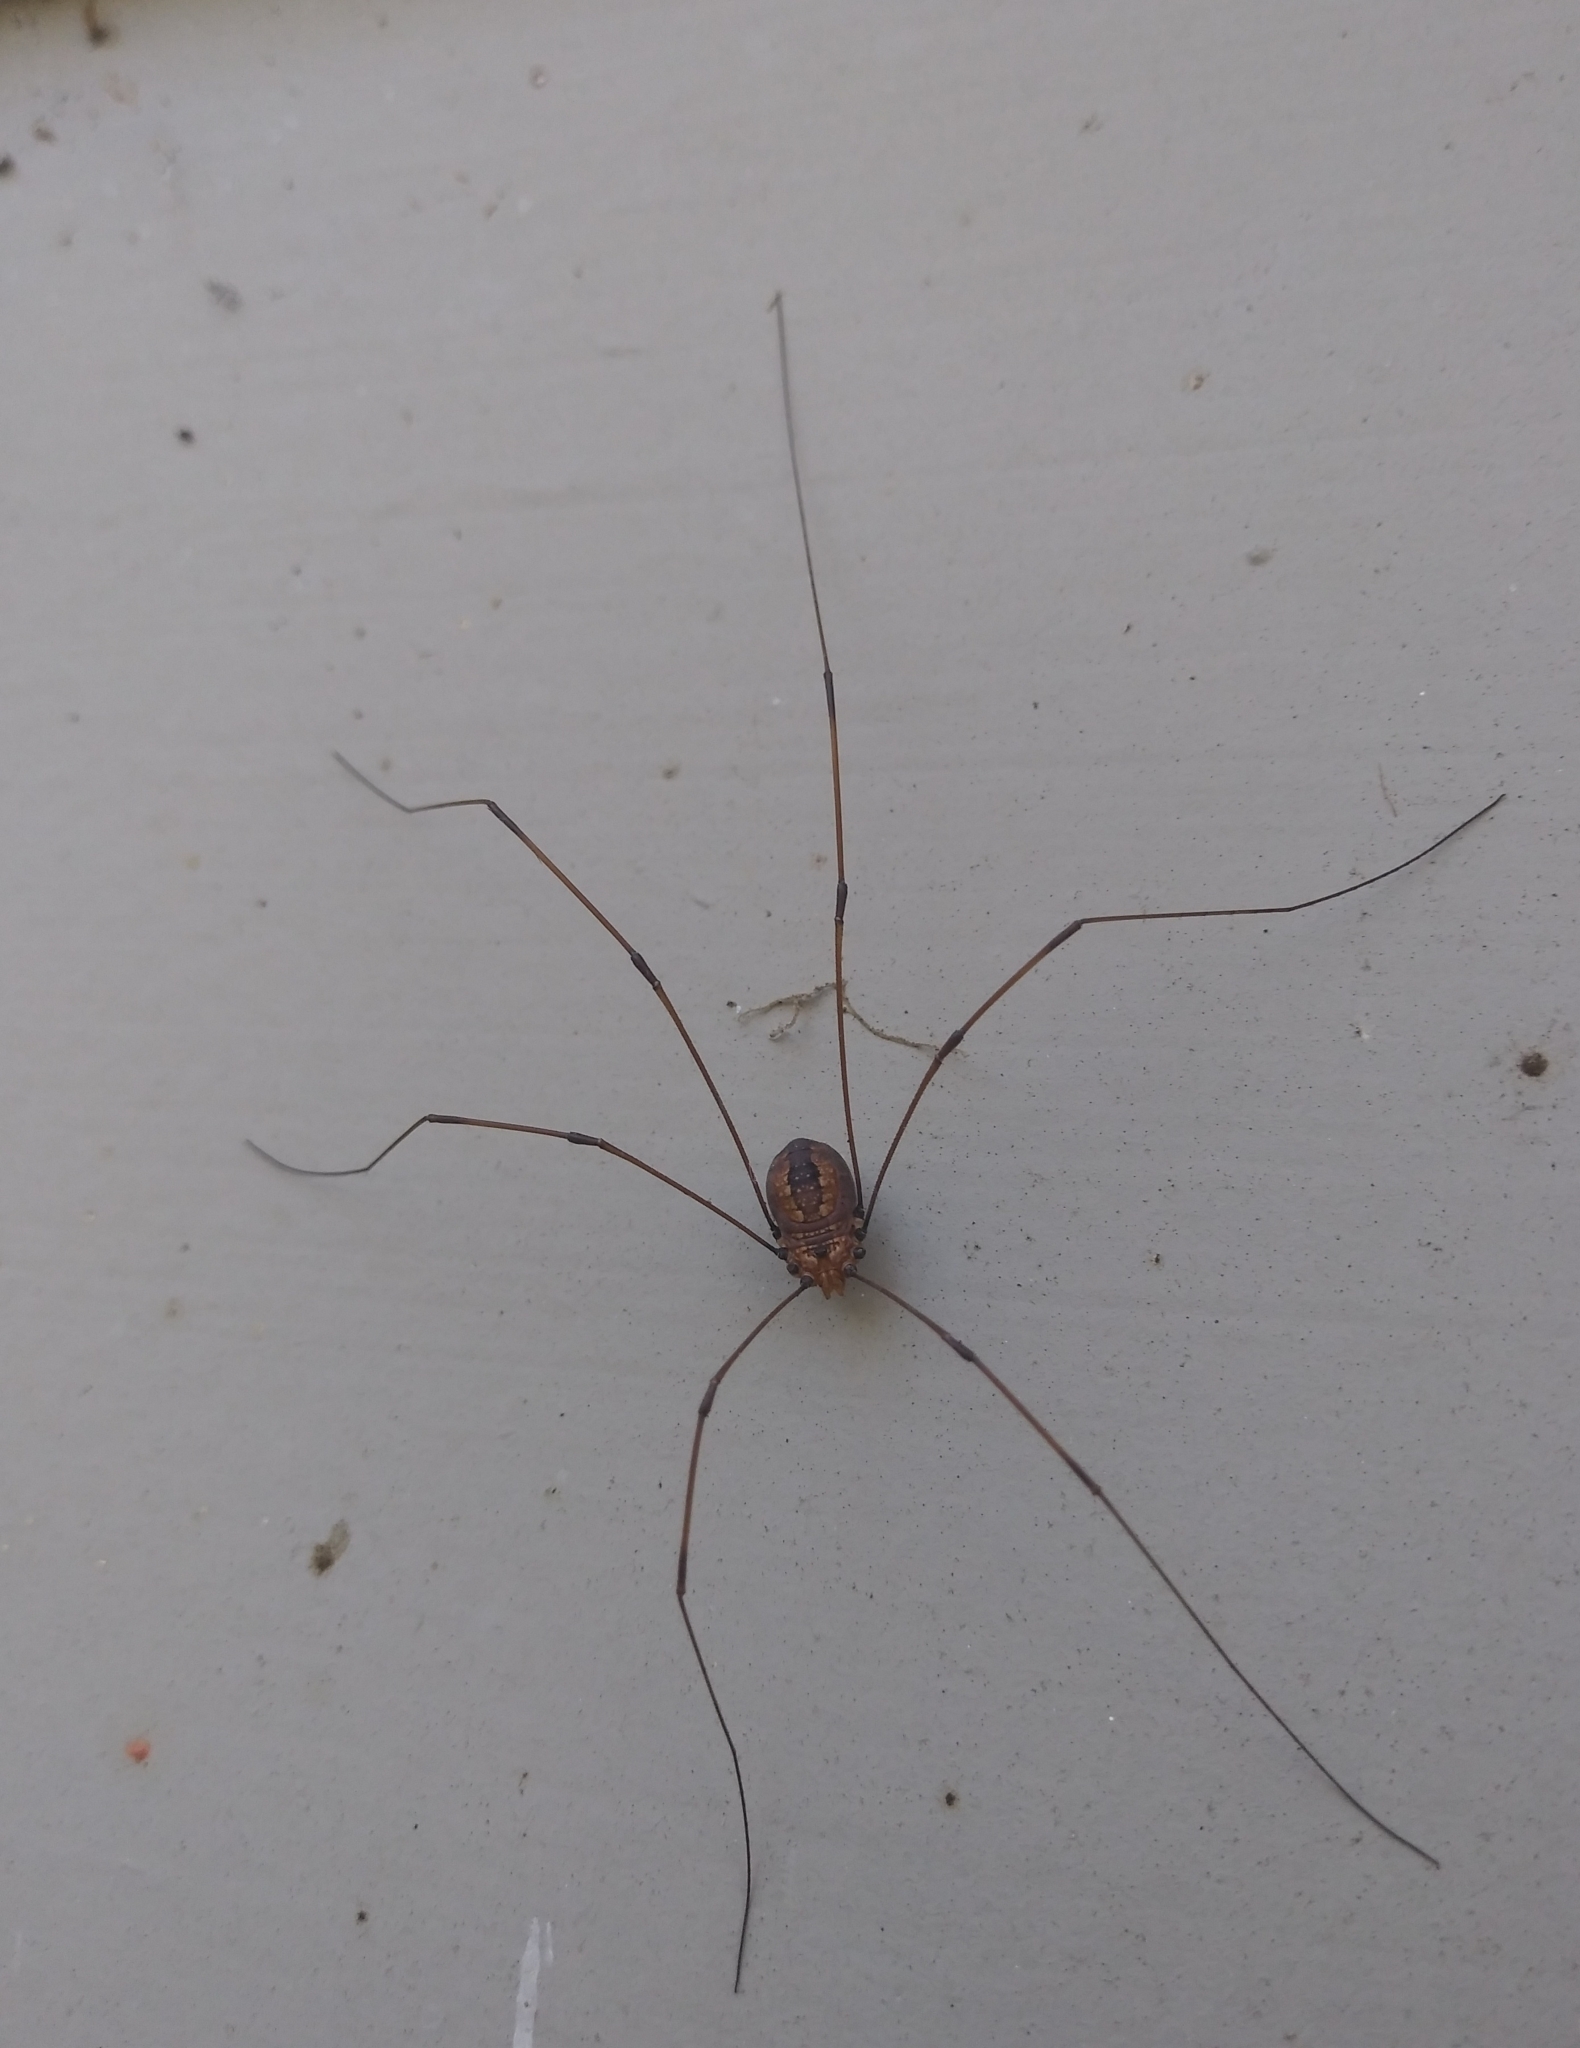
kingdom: Animalia
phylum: Arthropoda
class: Arachnida
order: Opiliones
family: Sclerosomatidae
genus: Leiobunum
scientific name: Leiobunum uxorium
